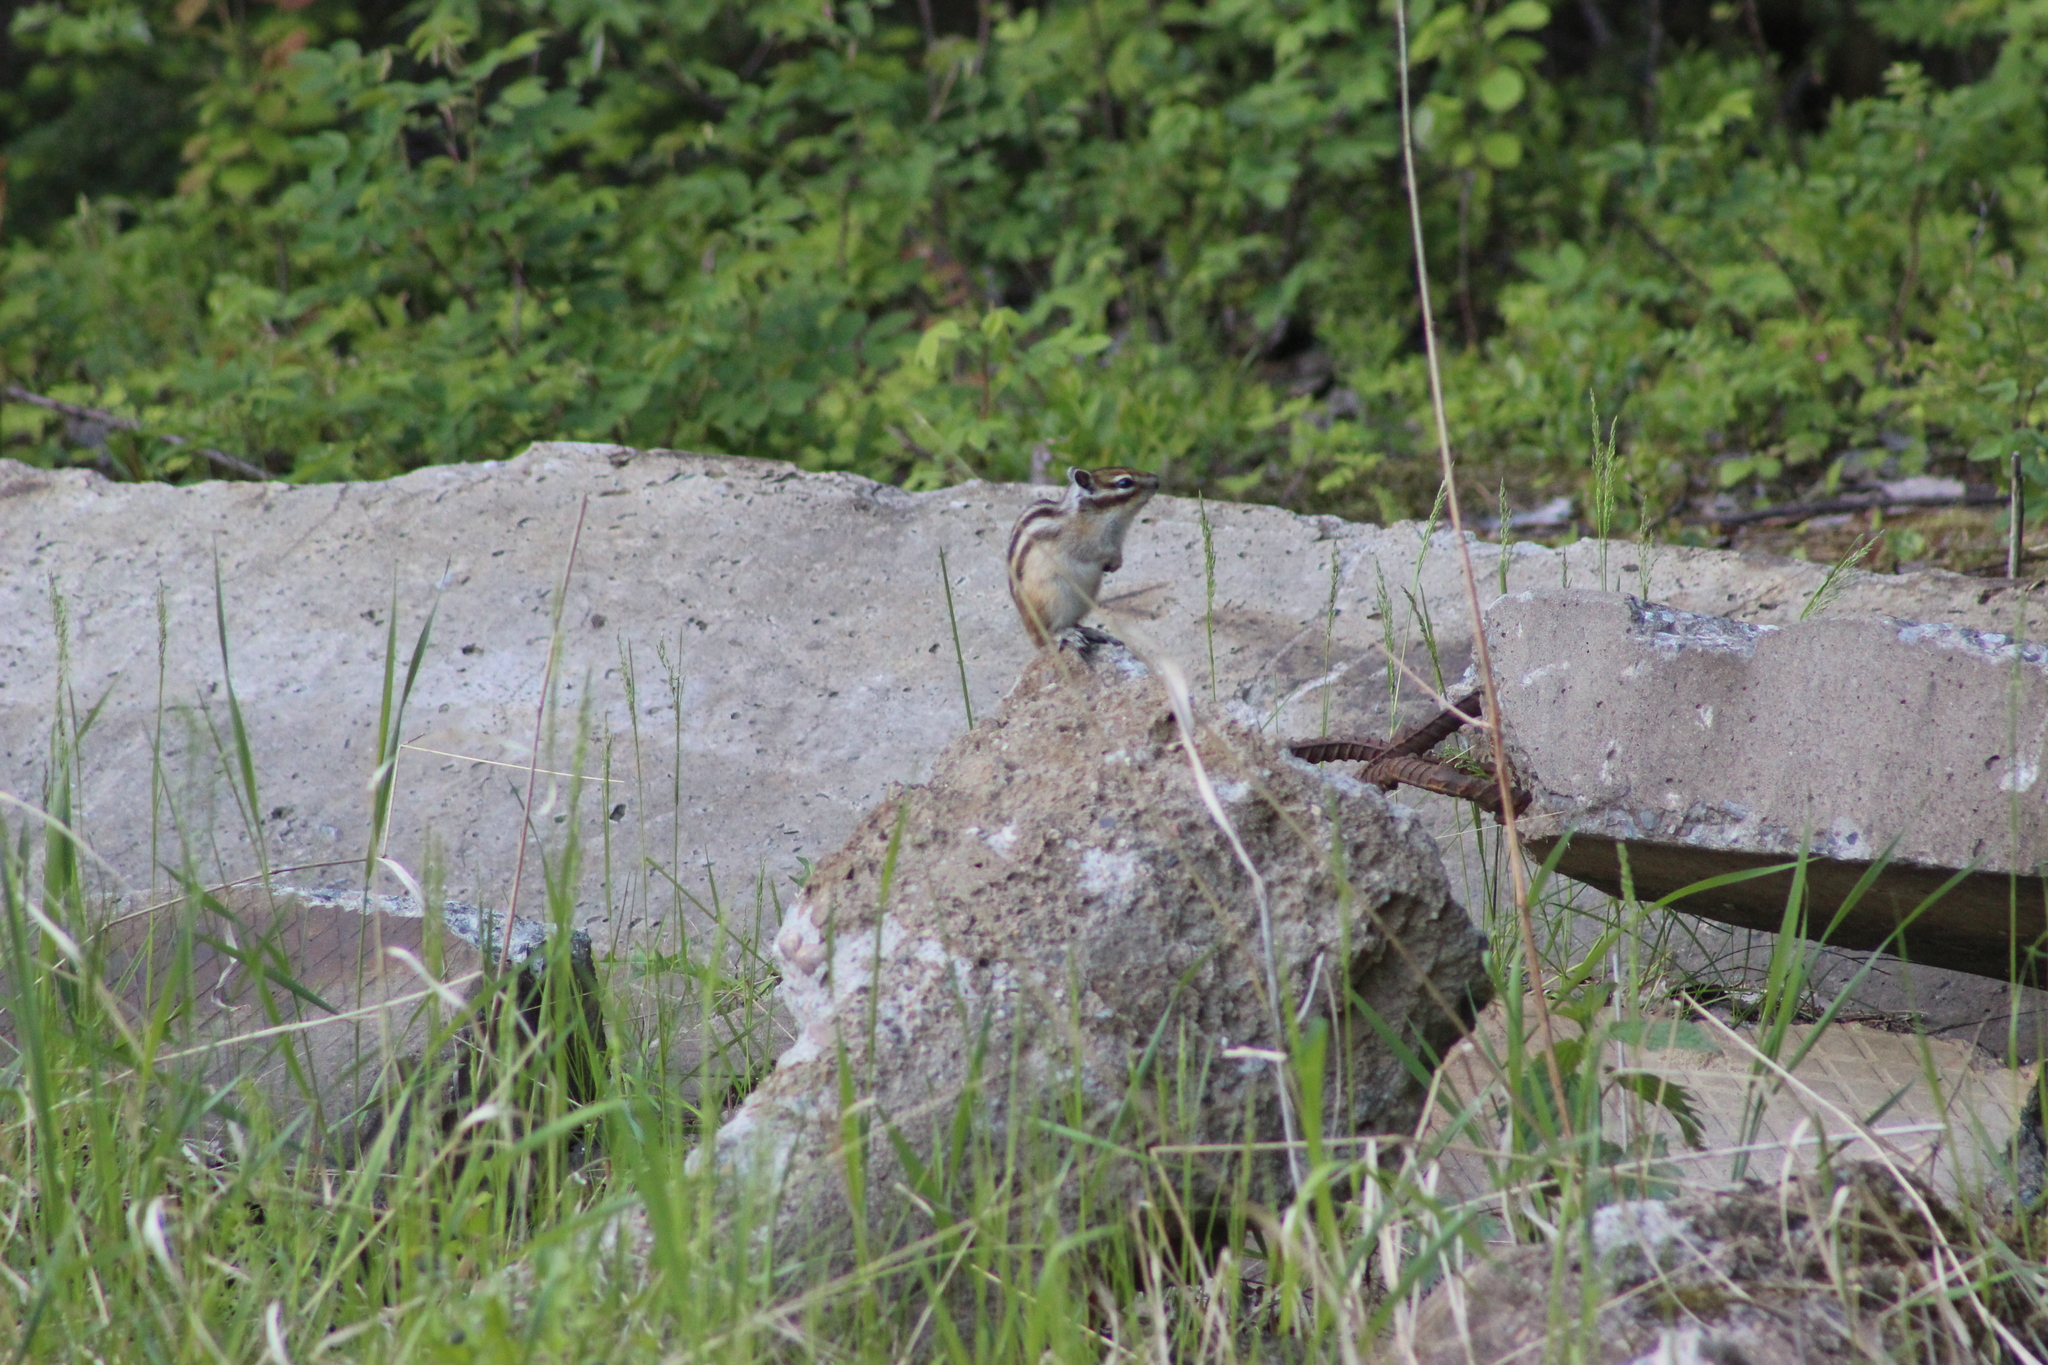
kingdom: Animalia
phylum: Chordata
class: Mammalia
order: Rodentia
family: Sciuridae
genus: Tamias
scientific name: Tamias sibiricus
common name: Siberian chipmunk
